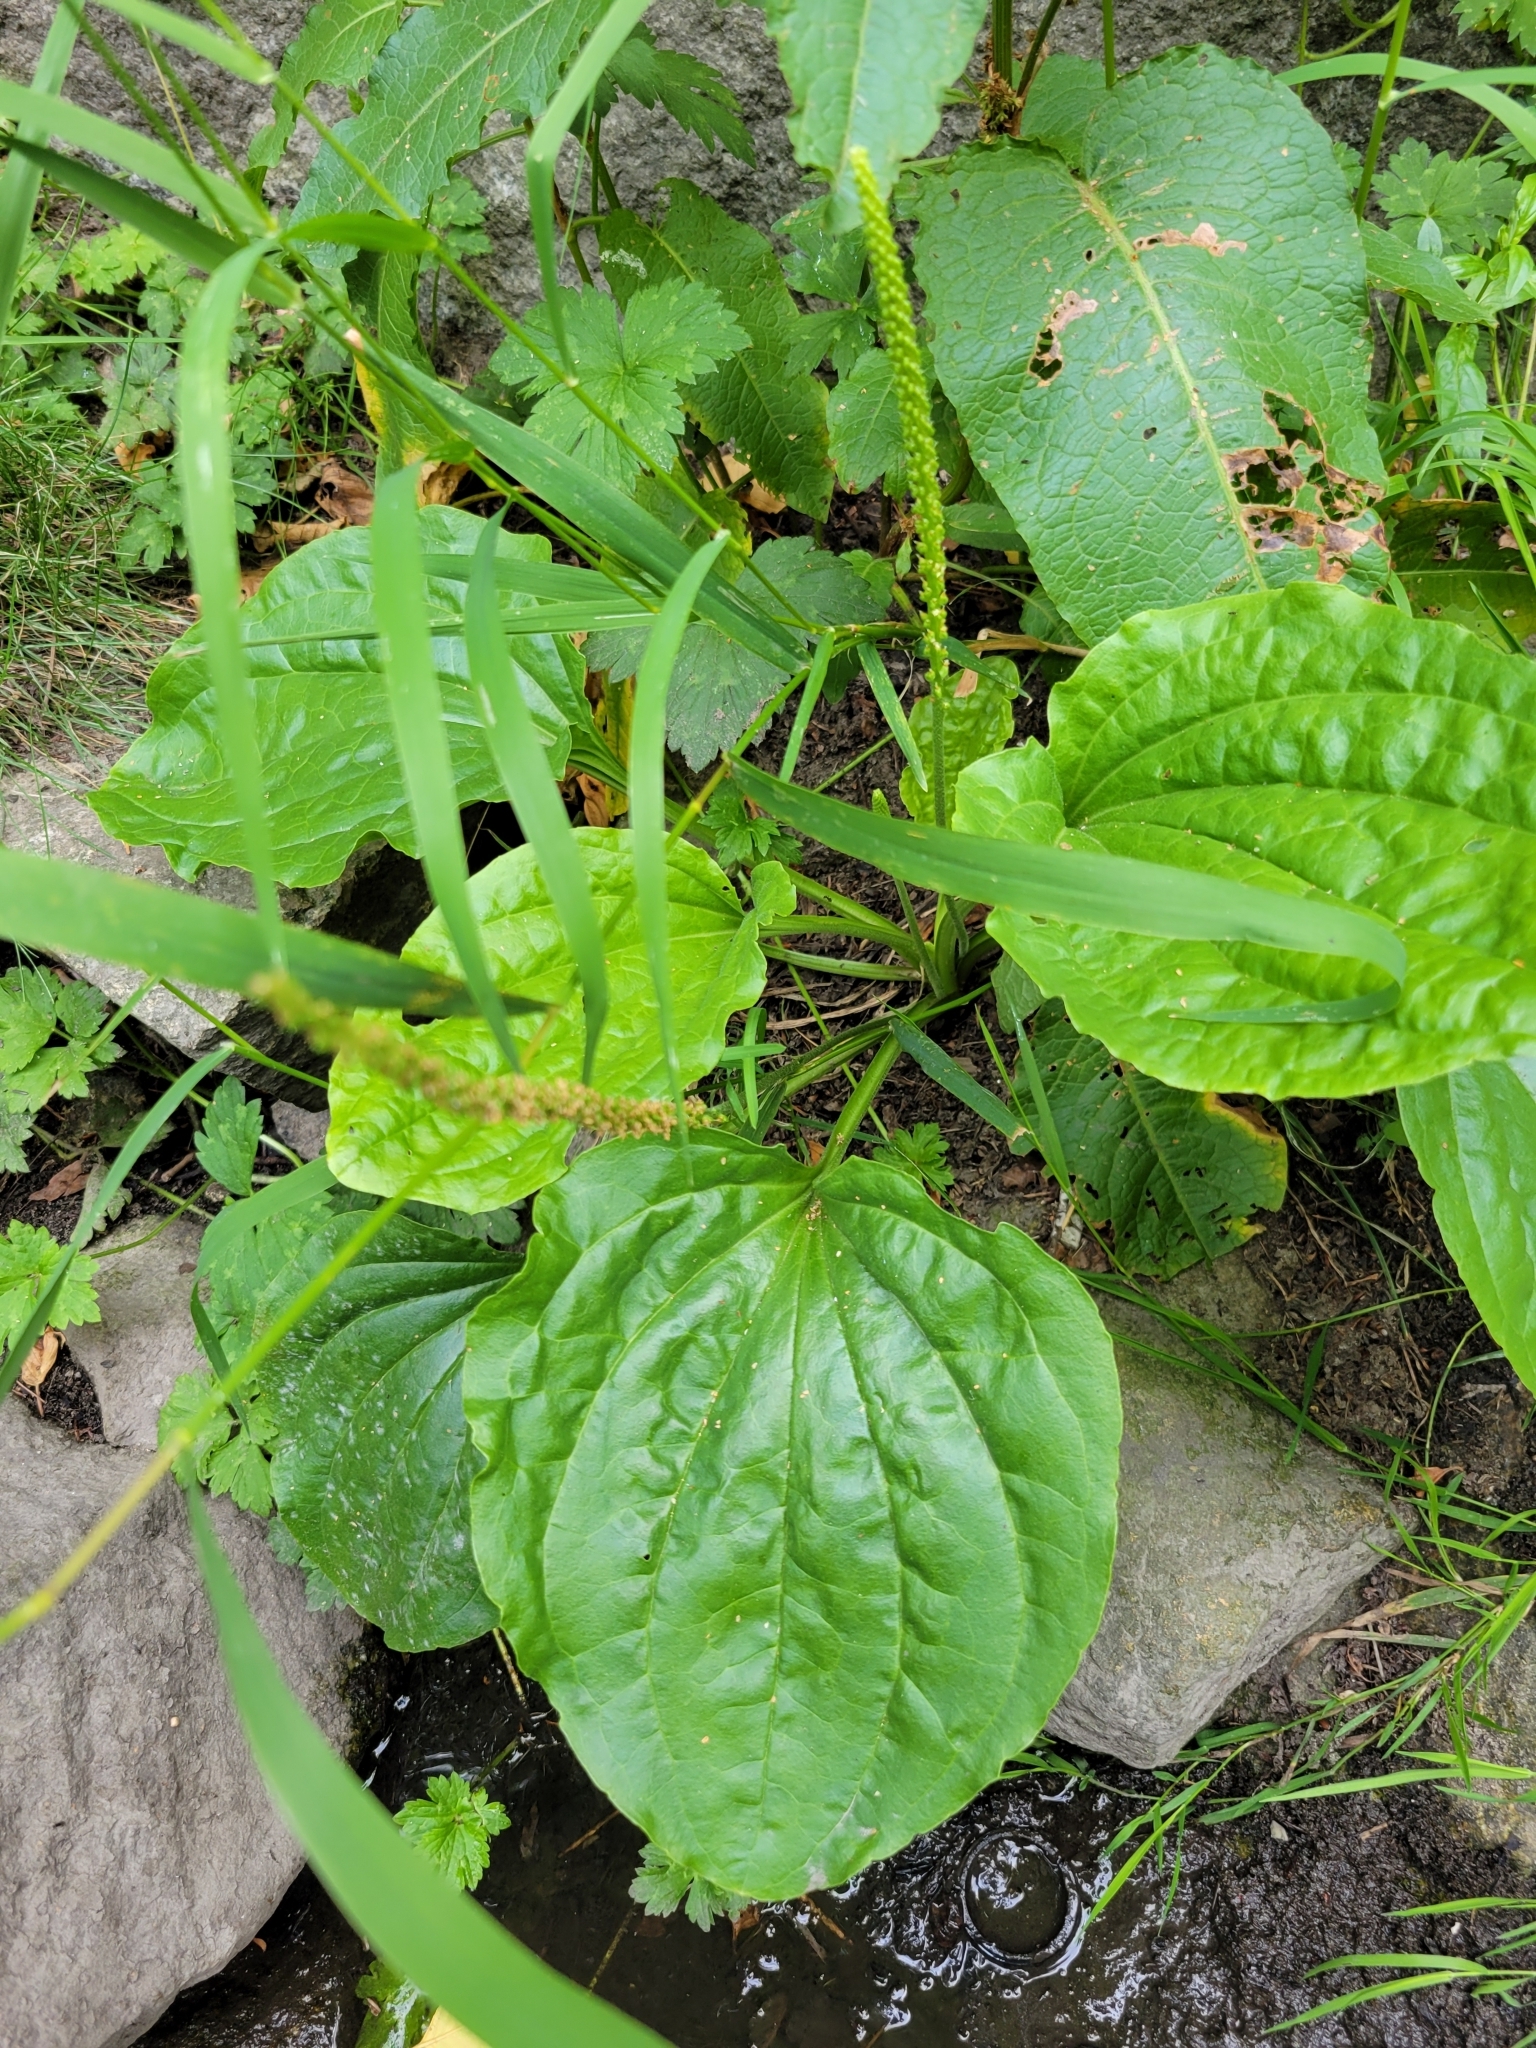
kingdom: Plantae
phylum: Tracheophyta
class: Magnoliopsida
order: Lamiales
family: Plantaginaceae
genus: Plantago
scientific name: Plantago major
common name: Common plantain
